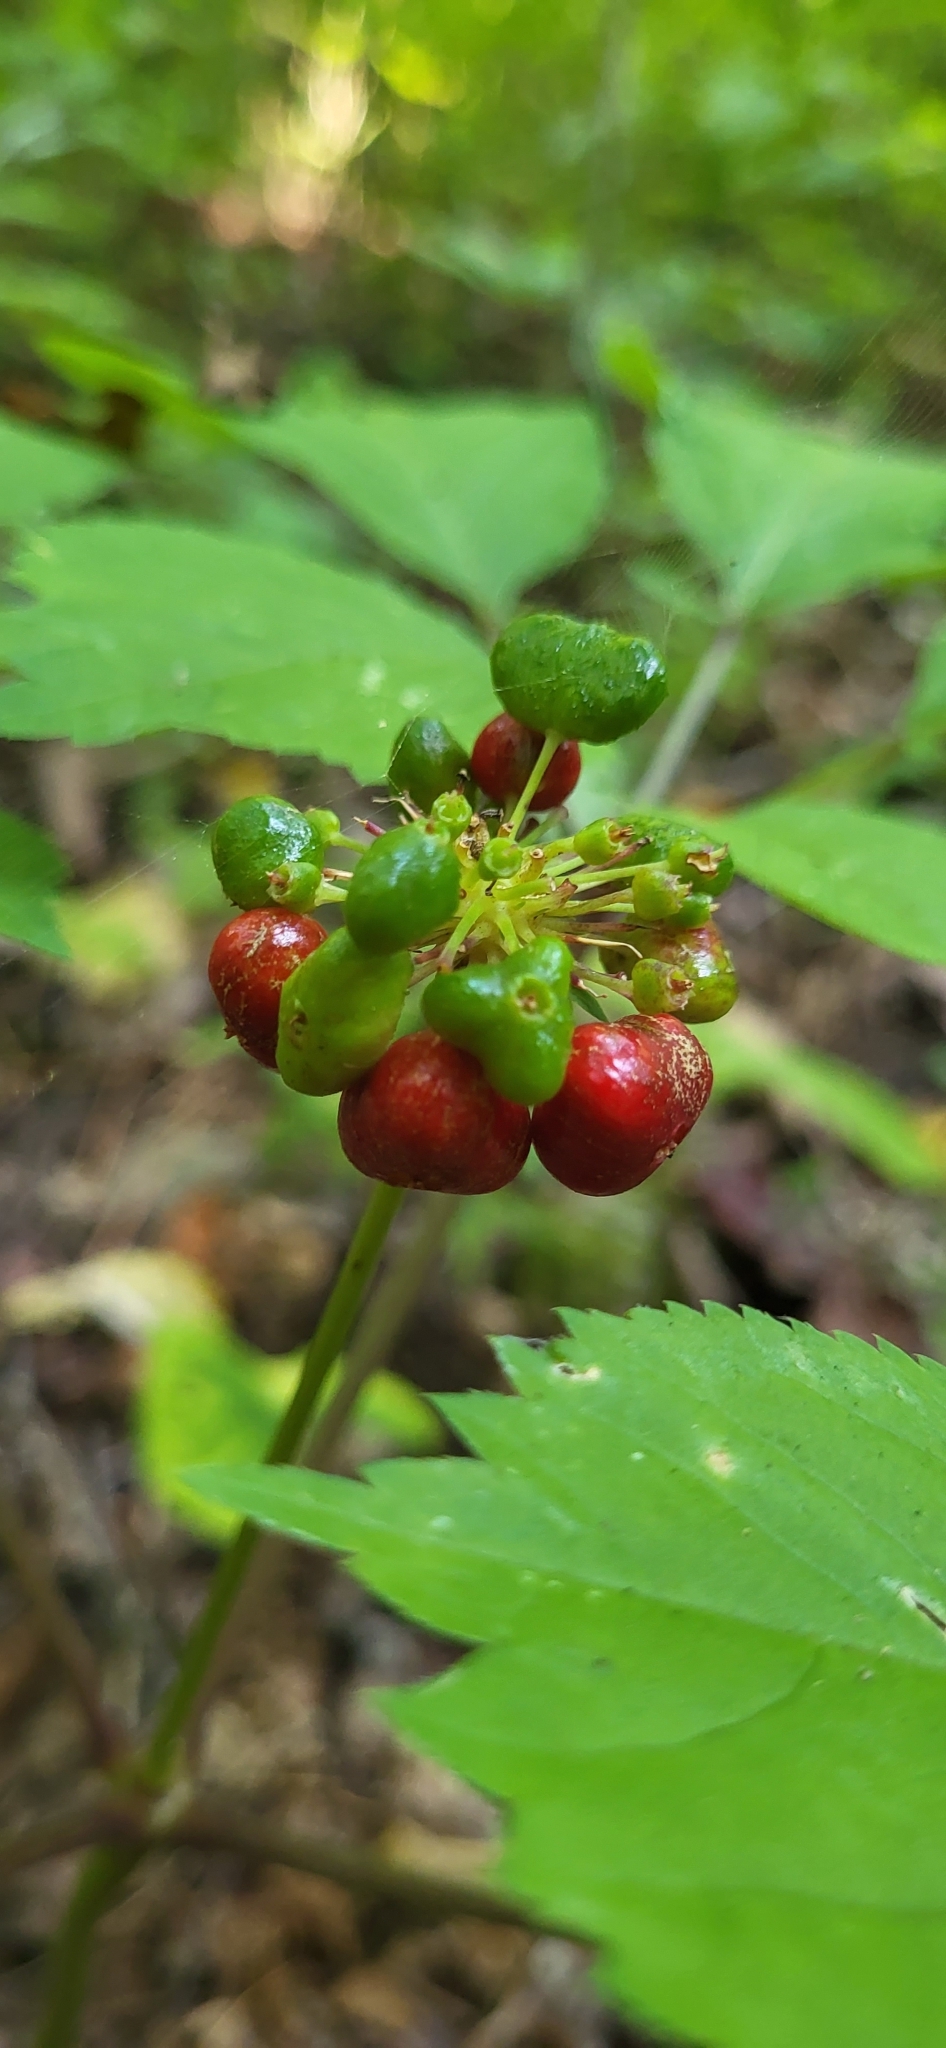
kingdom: Plantae
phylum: Tracheophyta
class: Magnoliopsida
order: Apiales
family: Araliaceae
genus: Panax
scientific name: Panax quinquefolius
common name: American ginseng
